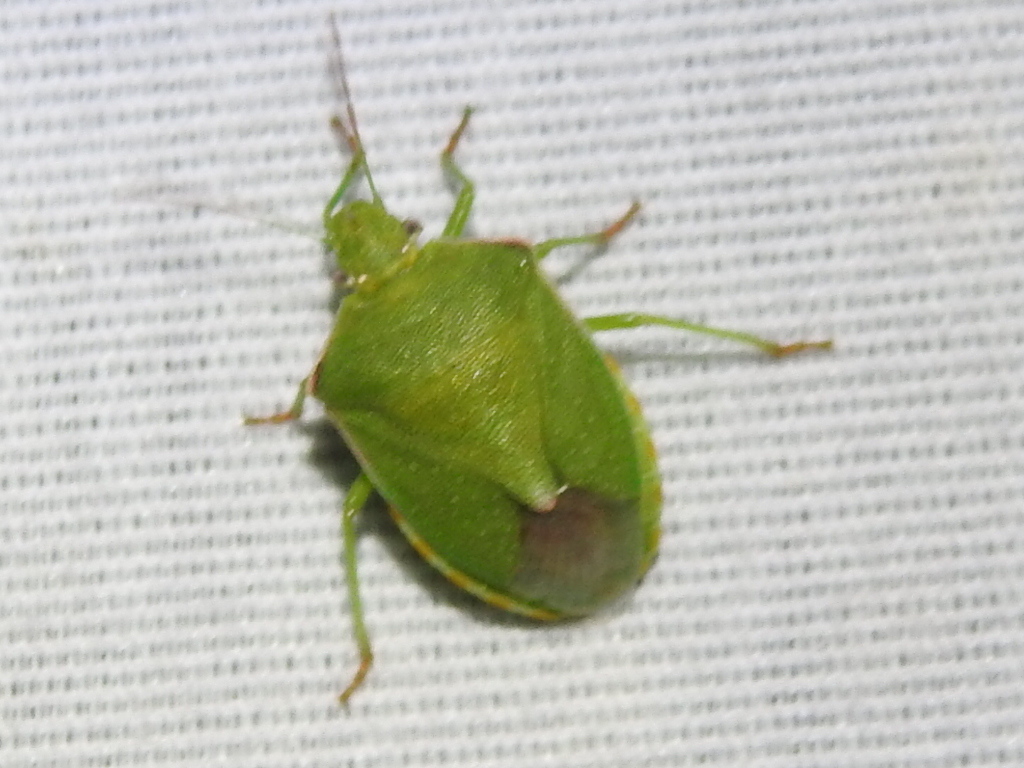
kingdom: Animalia
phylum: Arthropoda
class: Insecta
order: Hemiptera
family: Pentatomidae
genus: Thyanta
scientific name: Thyanta accerra
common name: Stink bug
